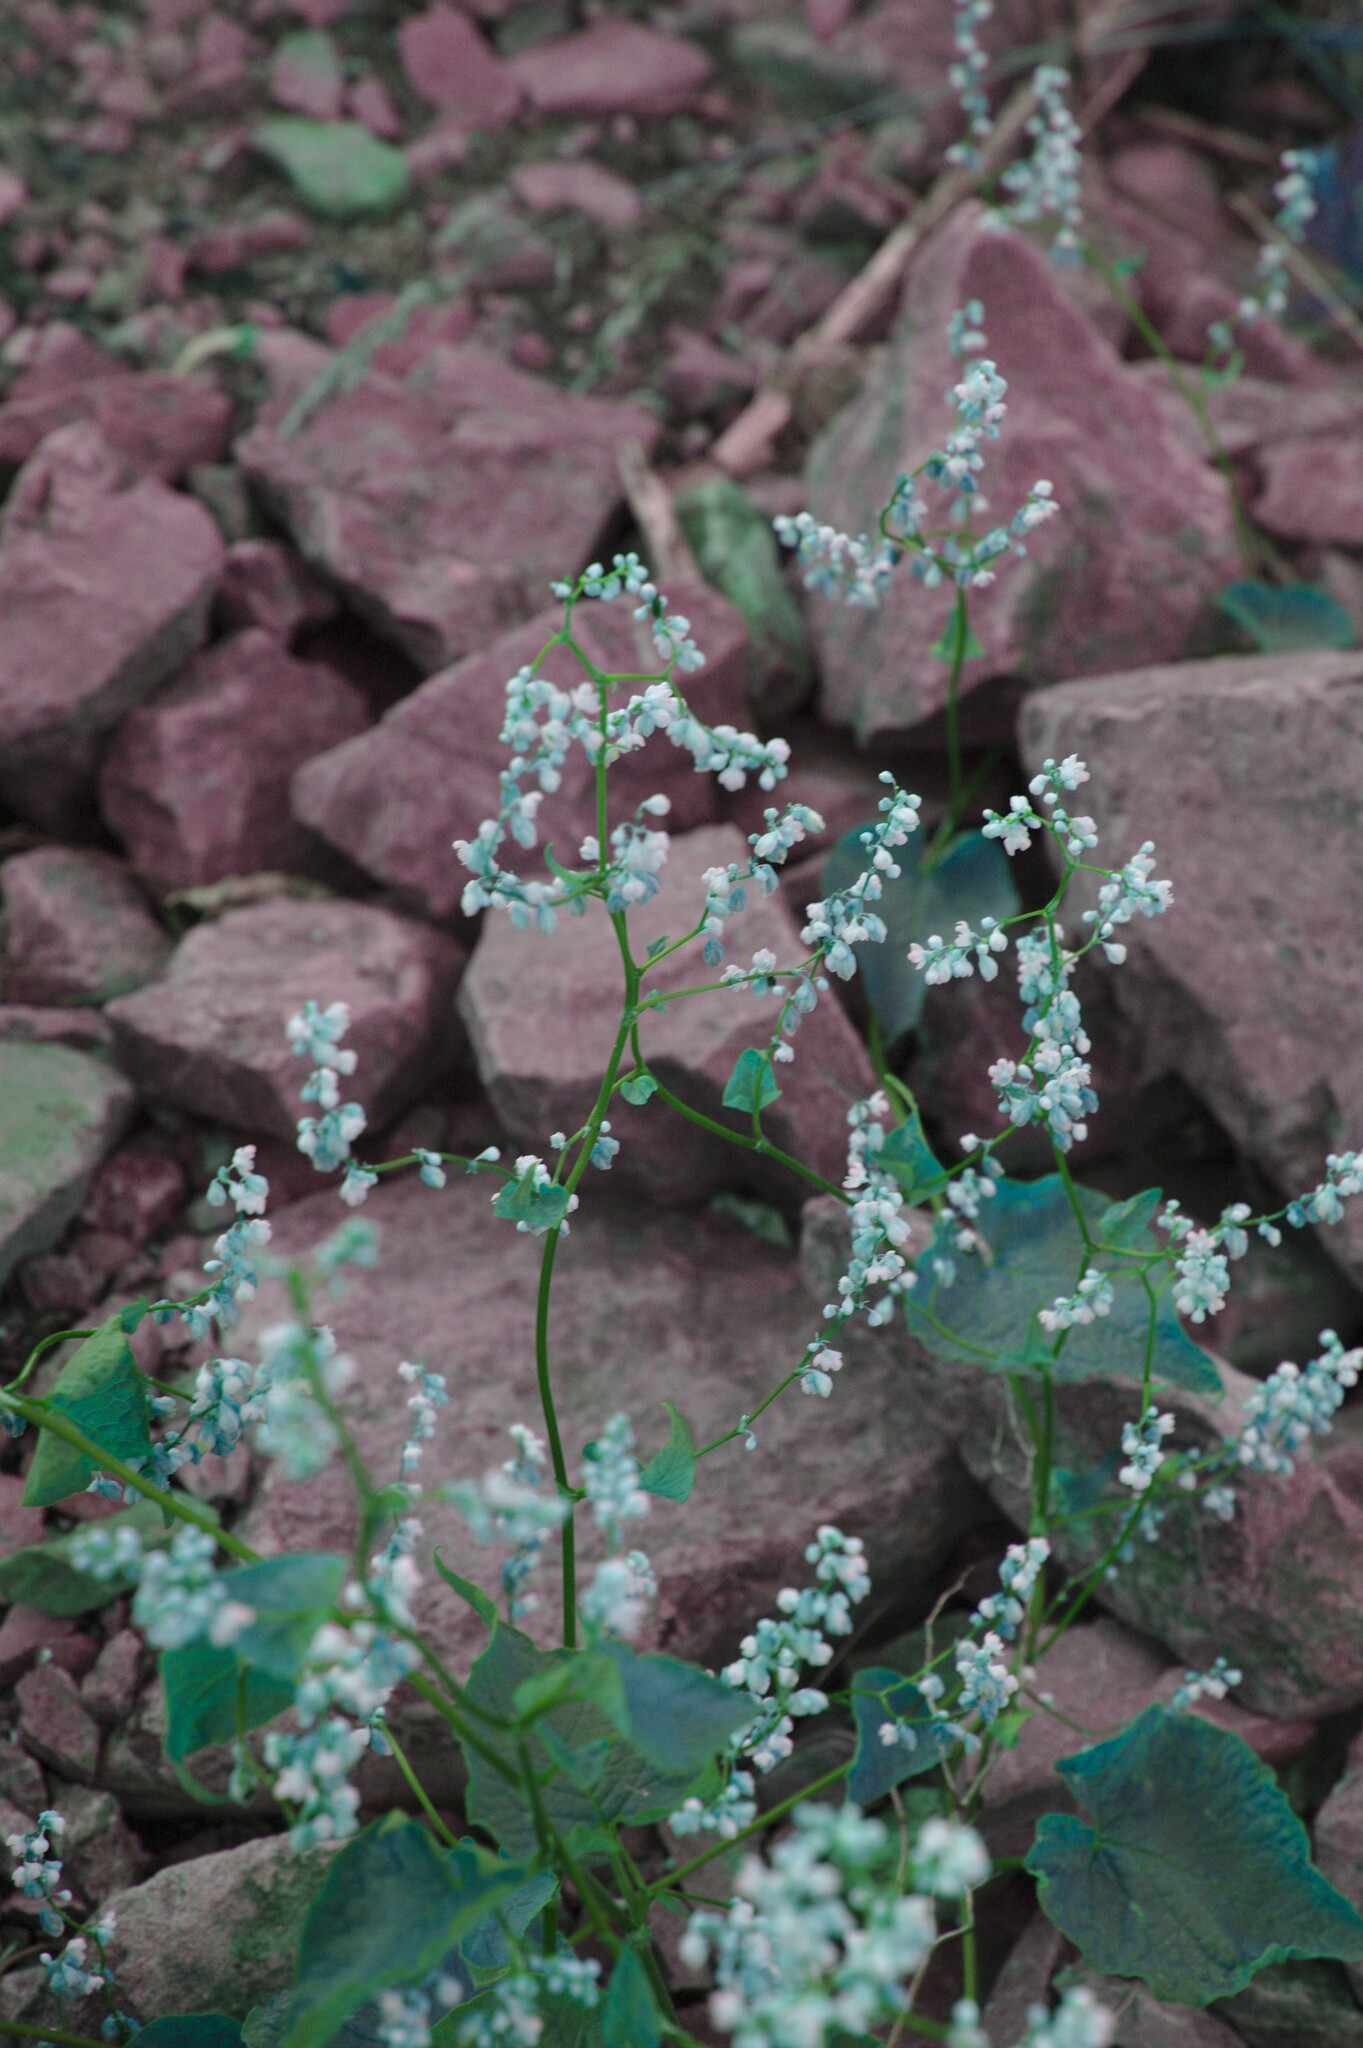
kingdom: Plantae
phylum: Tracheophyta
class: Magnoliopsida
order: Caryophyllales
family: Polygonaceae
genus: Parogonum
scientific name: Parogonum ciliinode
